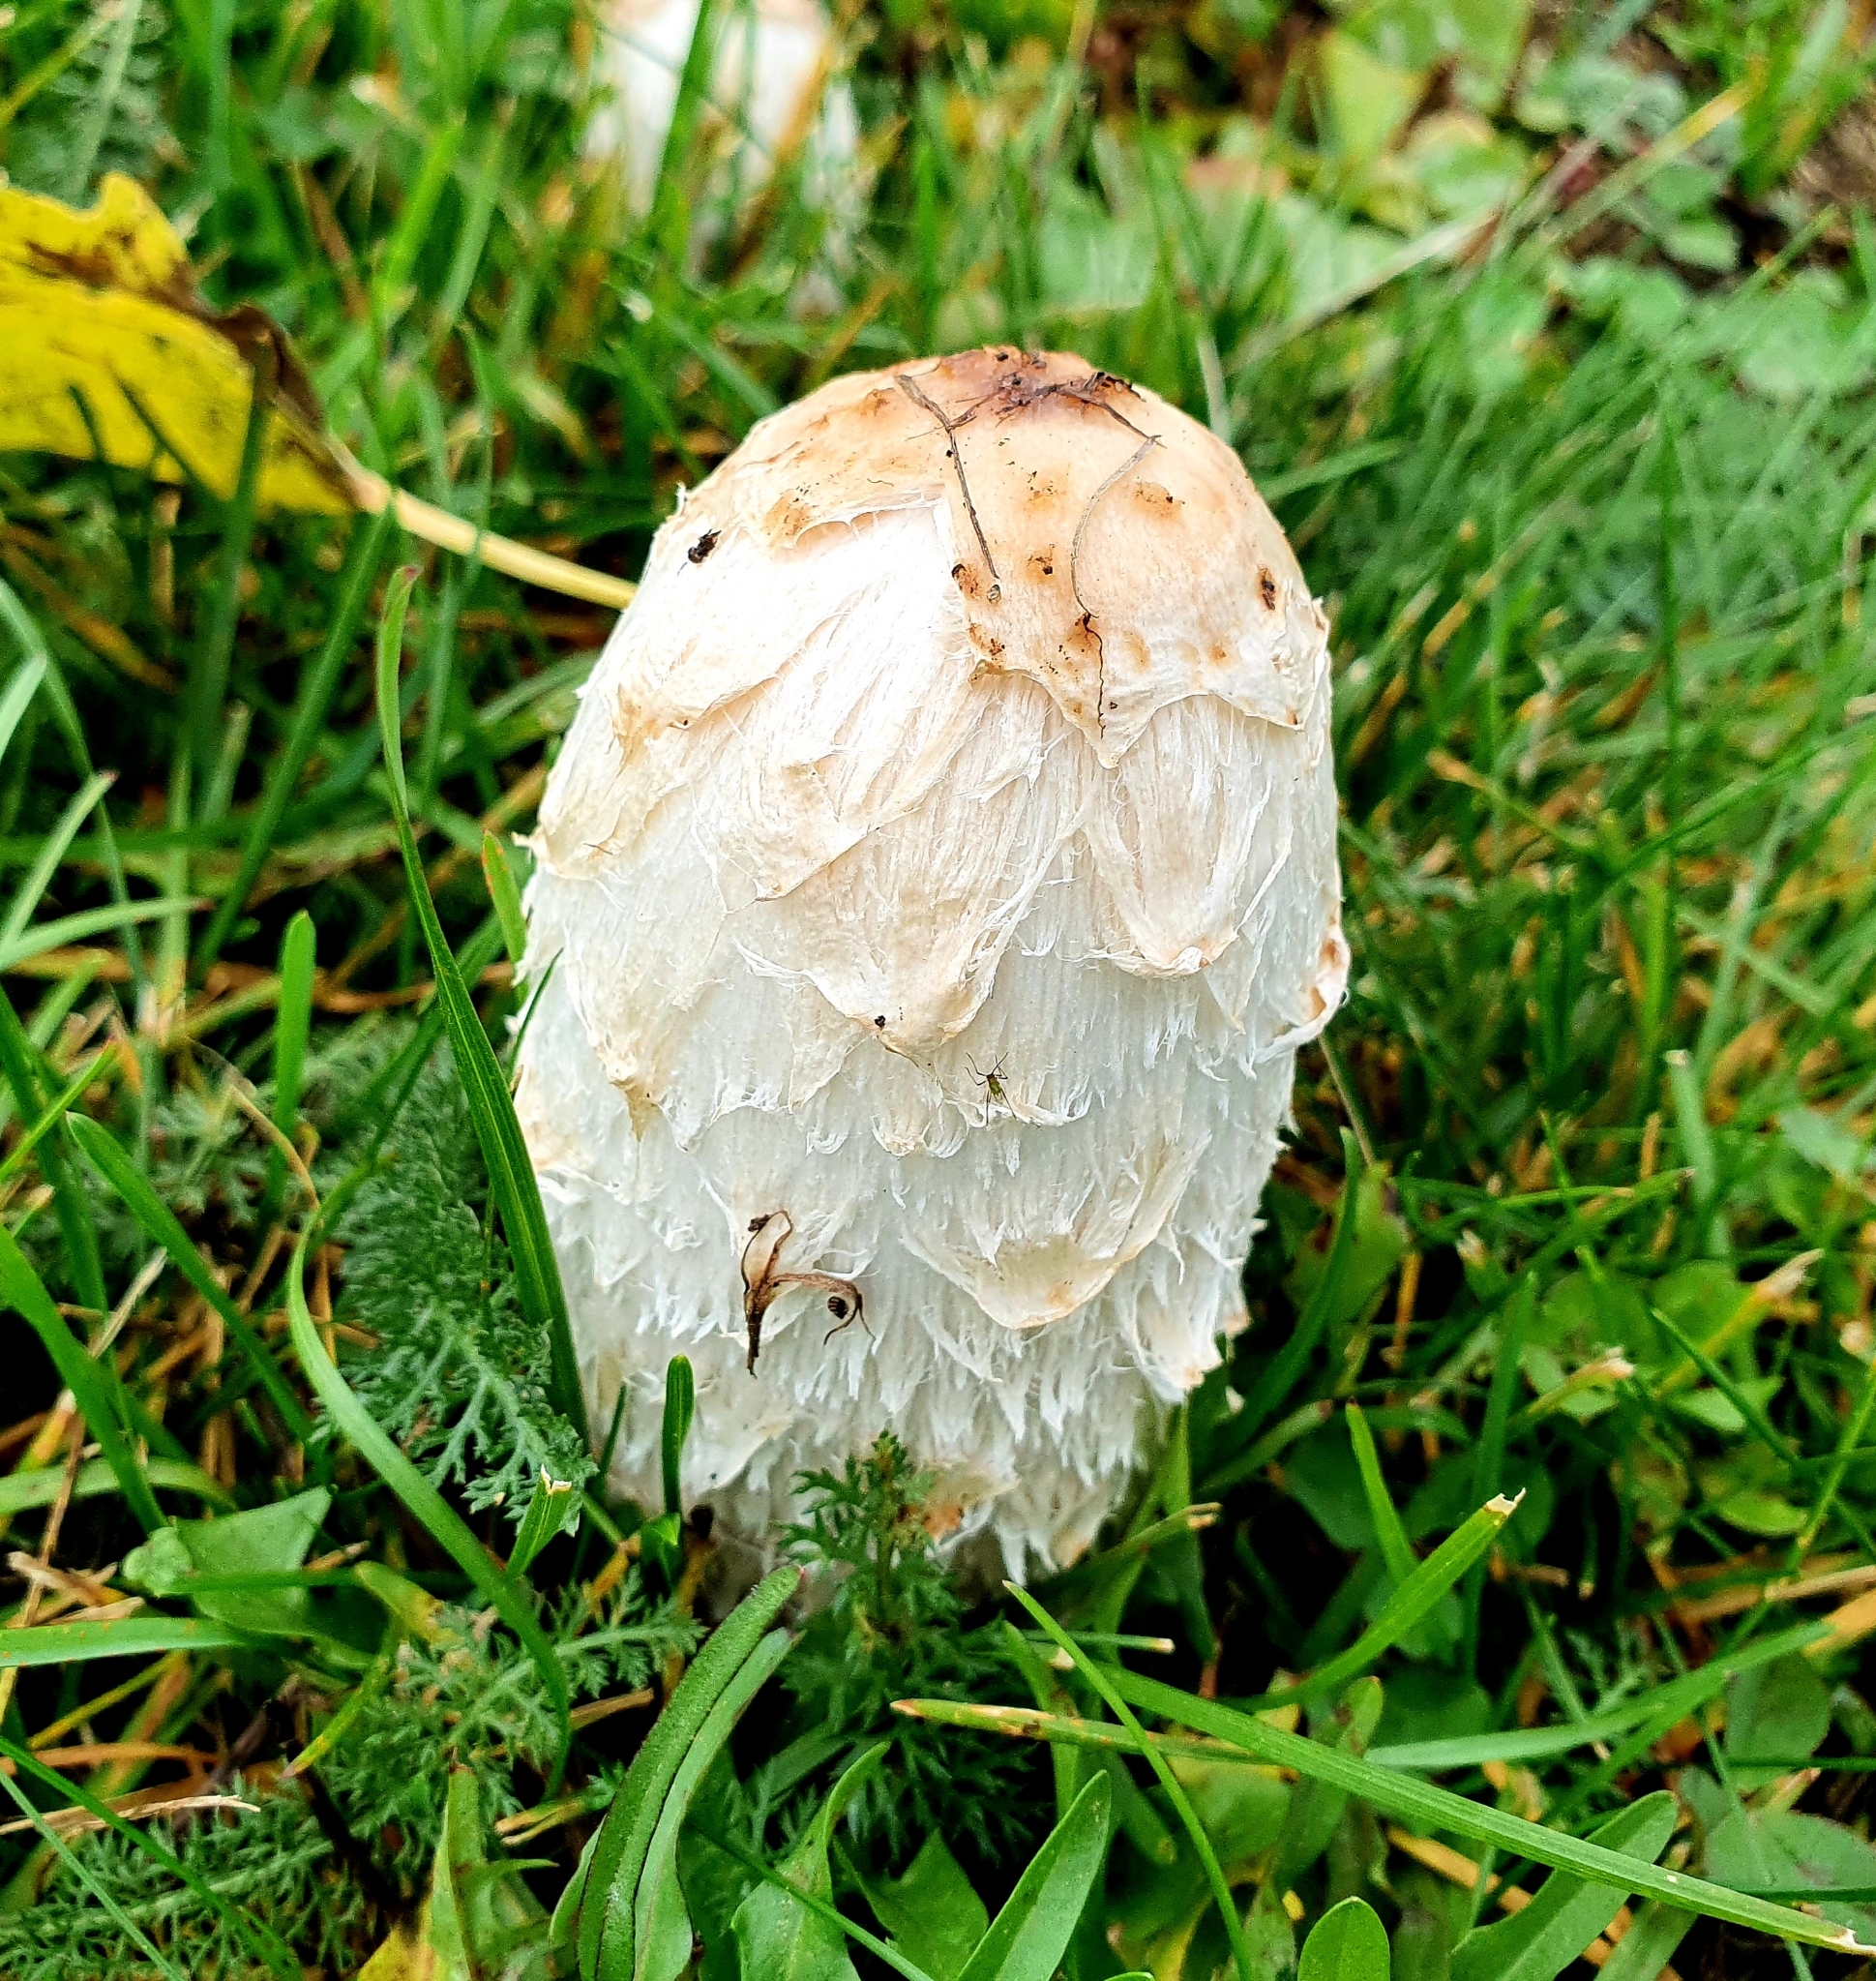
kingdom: Fungi
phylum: Basidiomycota
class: Agaricomycetes
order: Agaricales
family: Agaricaceae
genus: Coprinus
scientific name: Coprinus comatus
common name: Lawyer's wig
